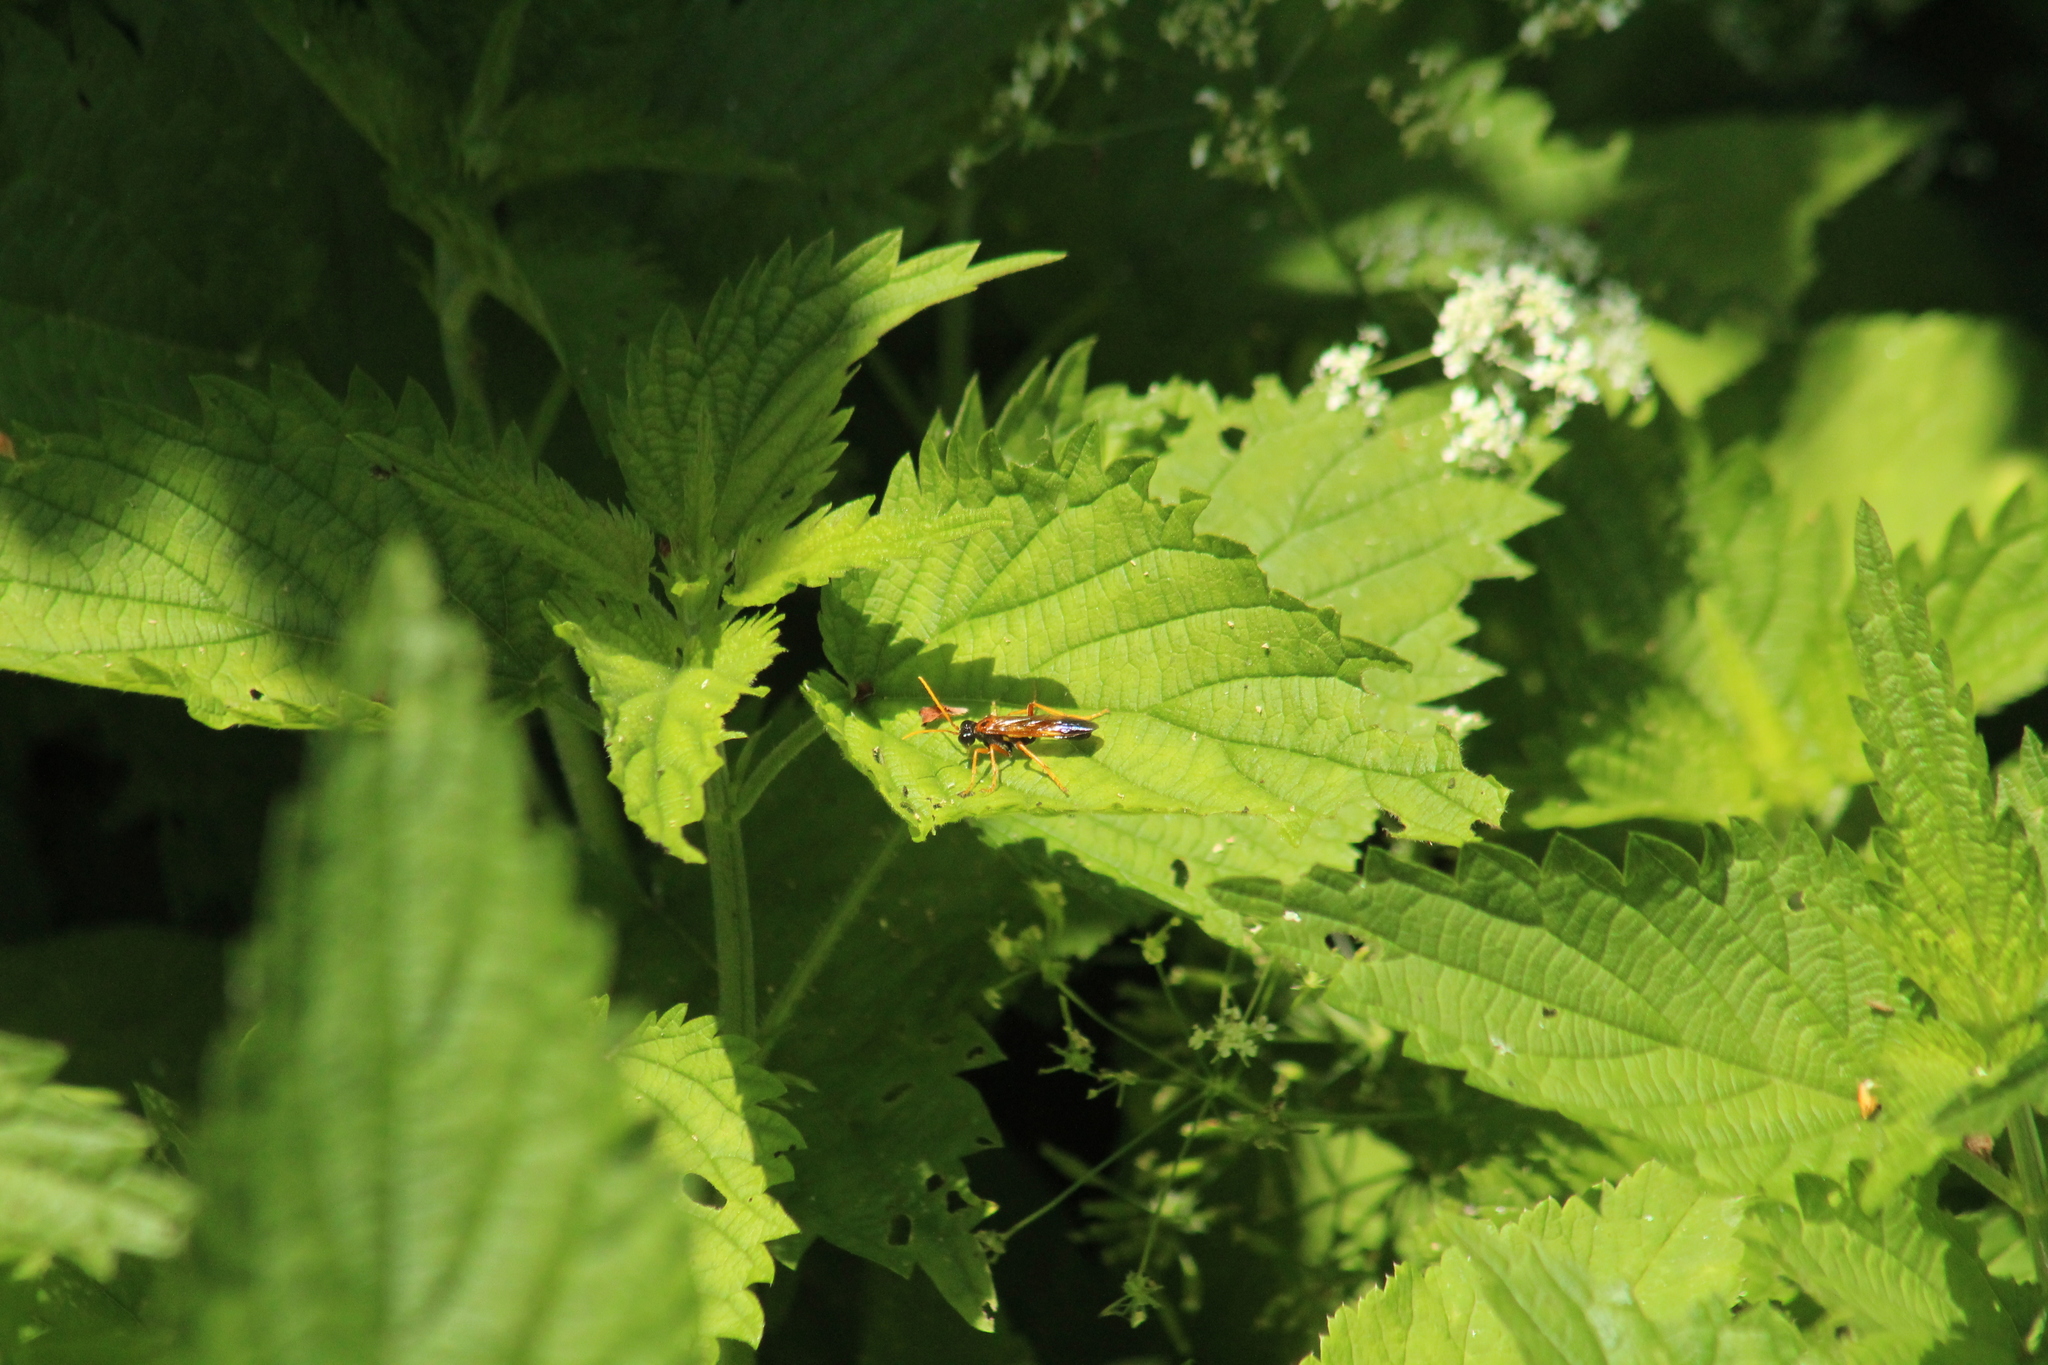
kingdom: Animalia
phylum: Arthropoda
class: Insecta
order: Hymenoptera
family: Tenthredinidae
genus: Tenthredo
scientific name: Tenthredo campestris
